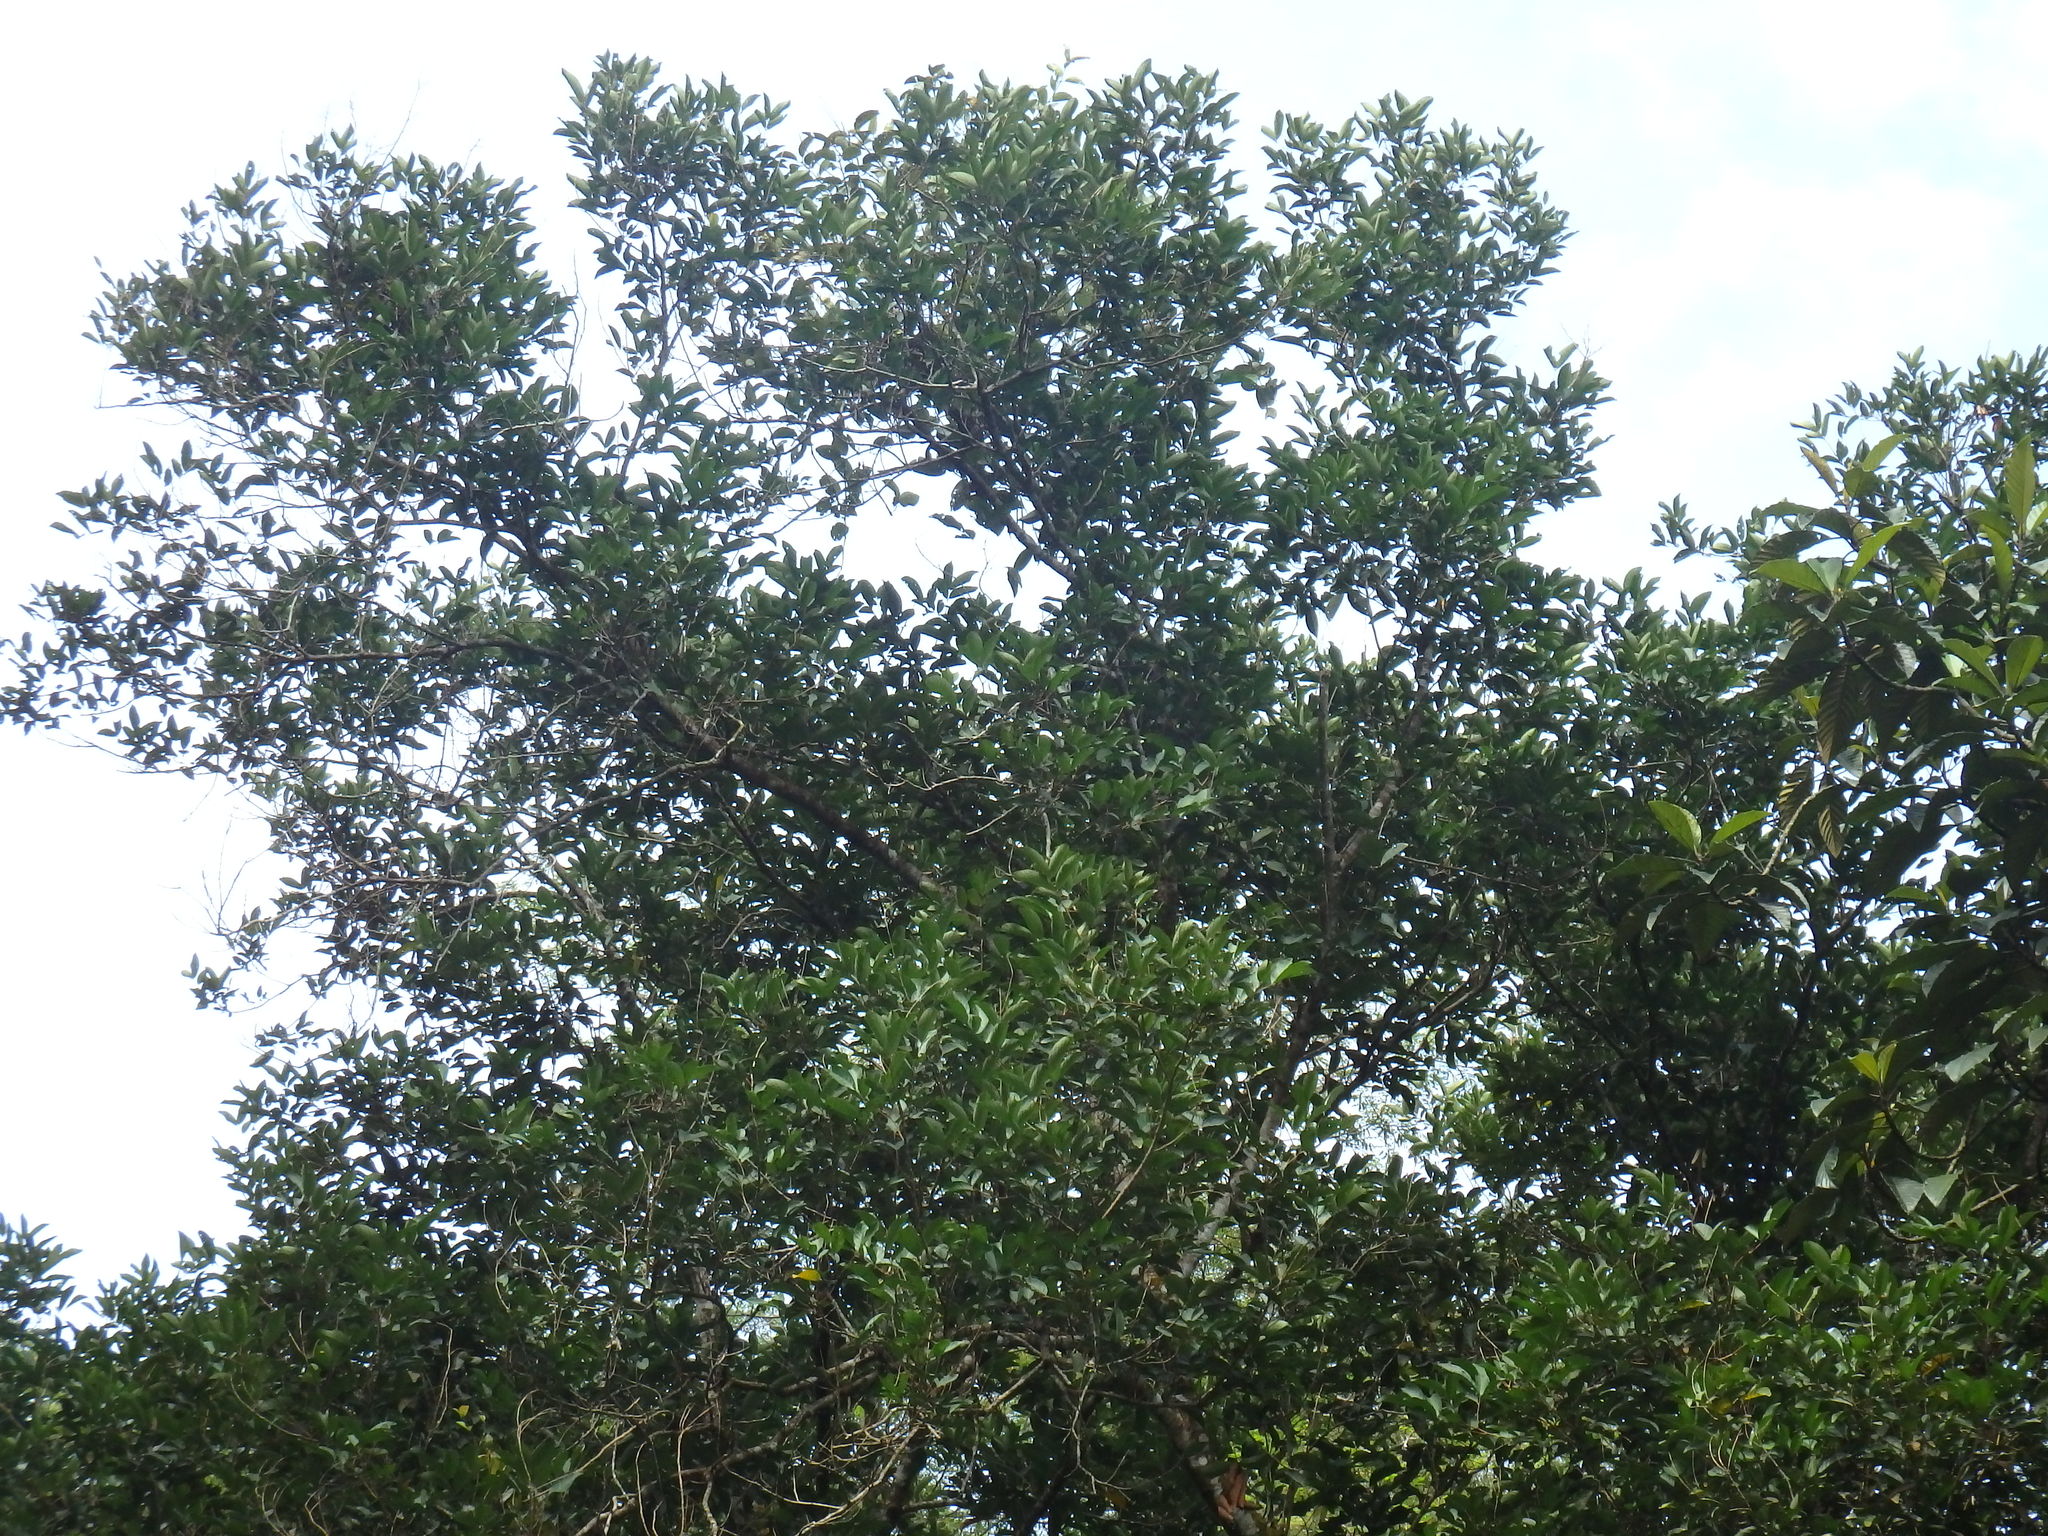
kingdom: Plantae
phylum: Tracheophyta
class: Magnoliopsida
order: Sapindales
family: Sapindaceae
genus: Nephelium
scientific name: Nephelium lappaceum
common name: Rambutan
